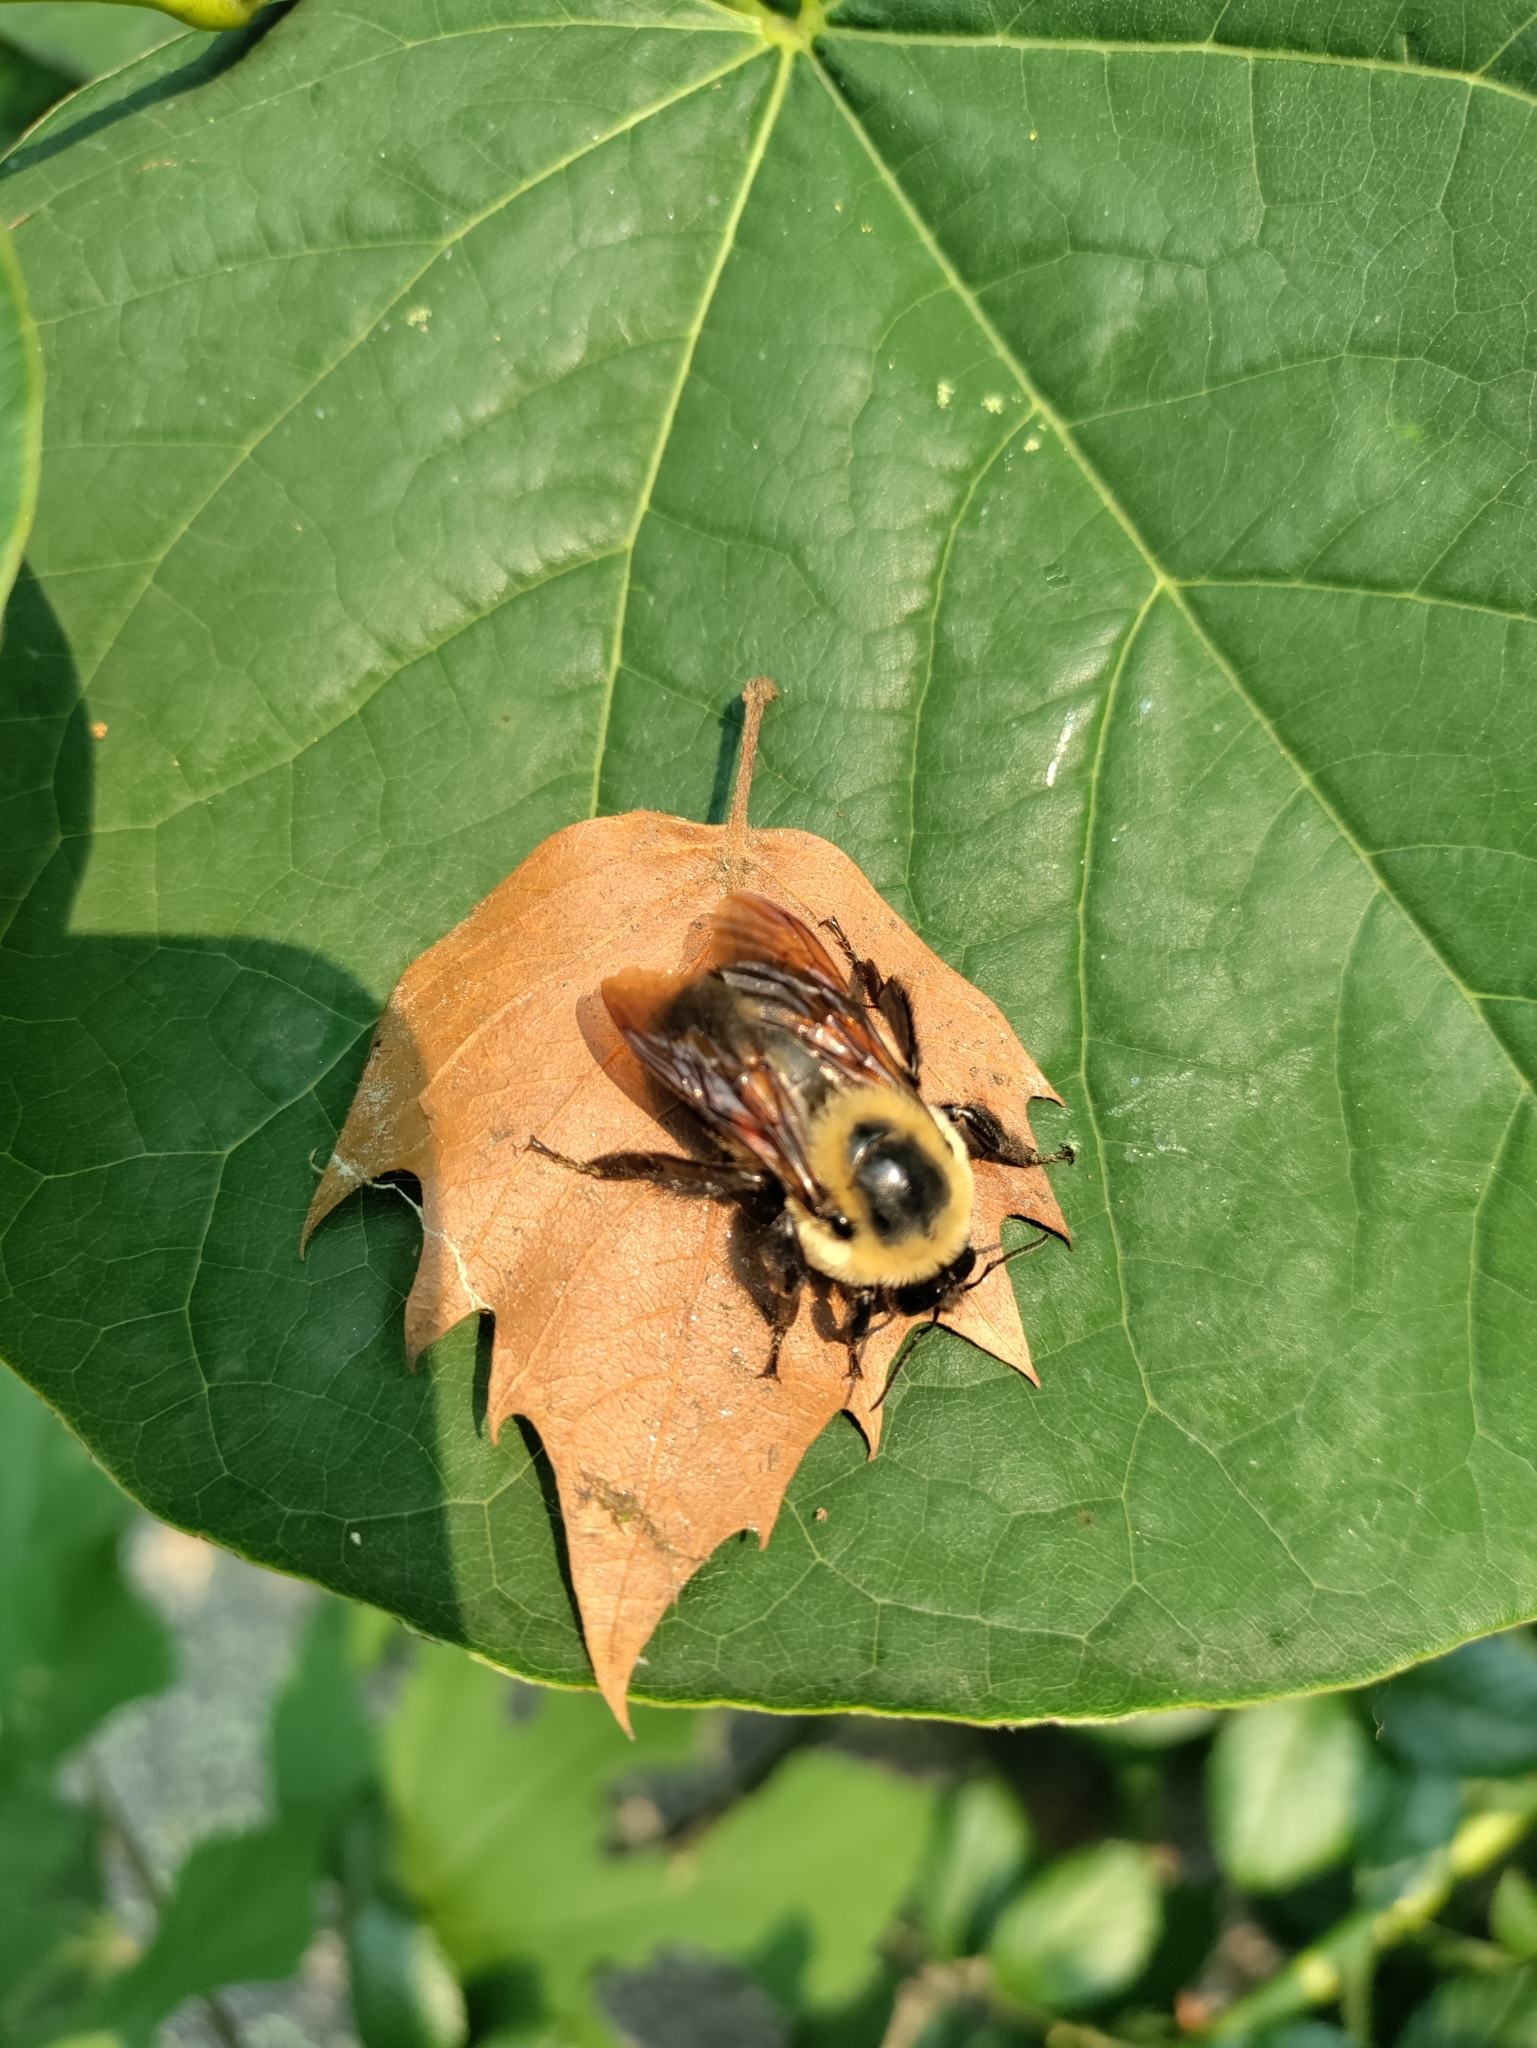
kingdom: Animalia
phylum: Arthropoda
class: Insecta
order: Hymenoptera
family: Apidae
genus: Bombus
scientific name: Bombus griseocollis
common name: Brown-belted bumble bee
